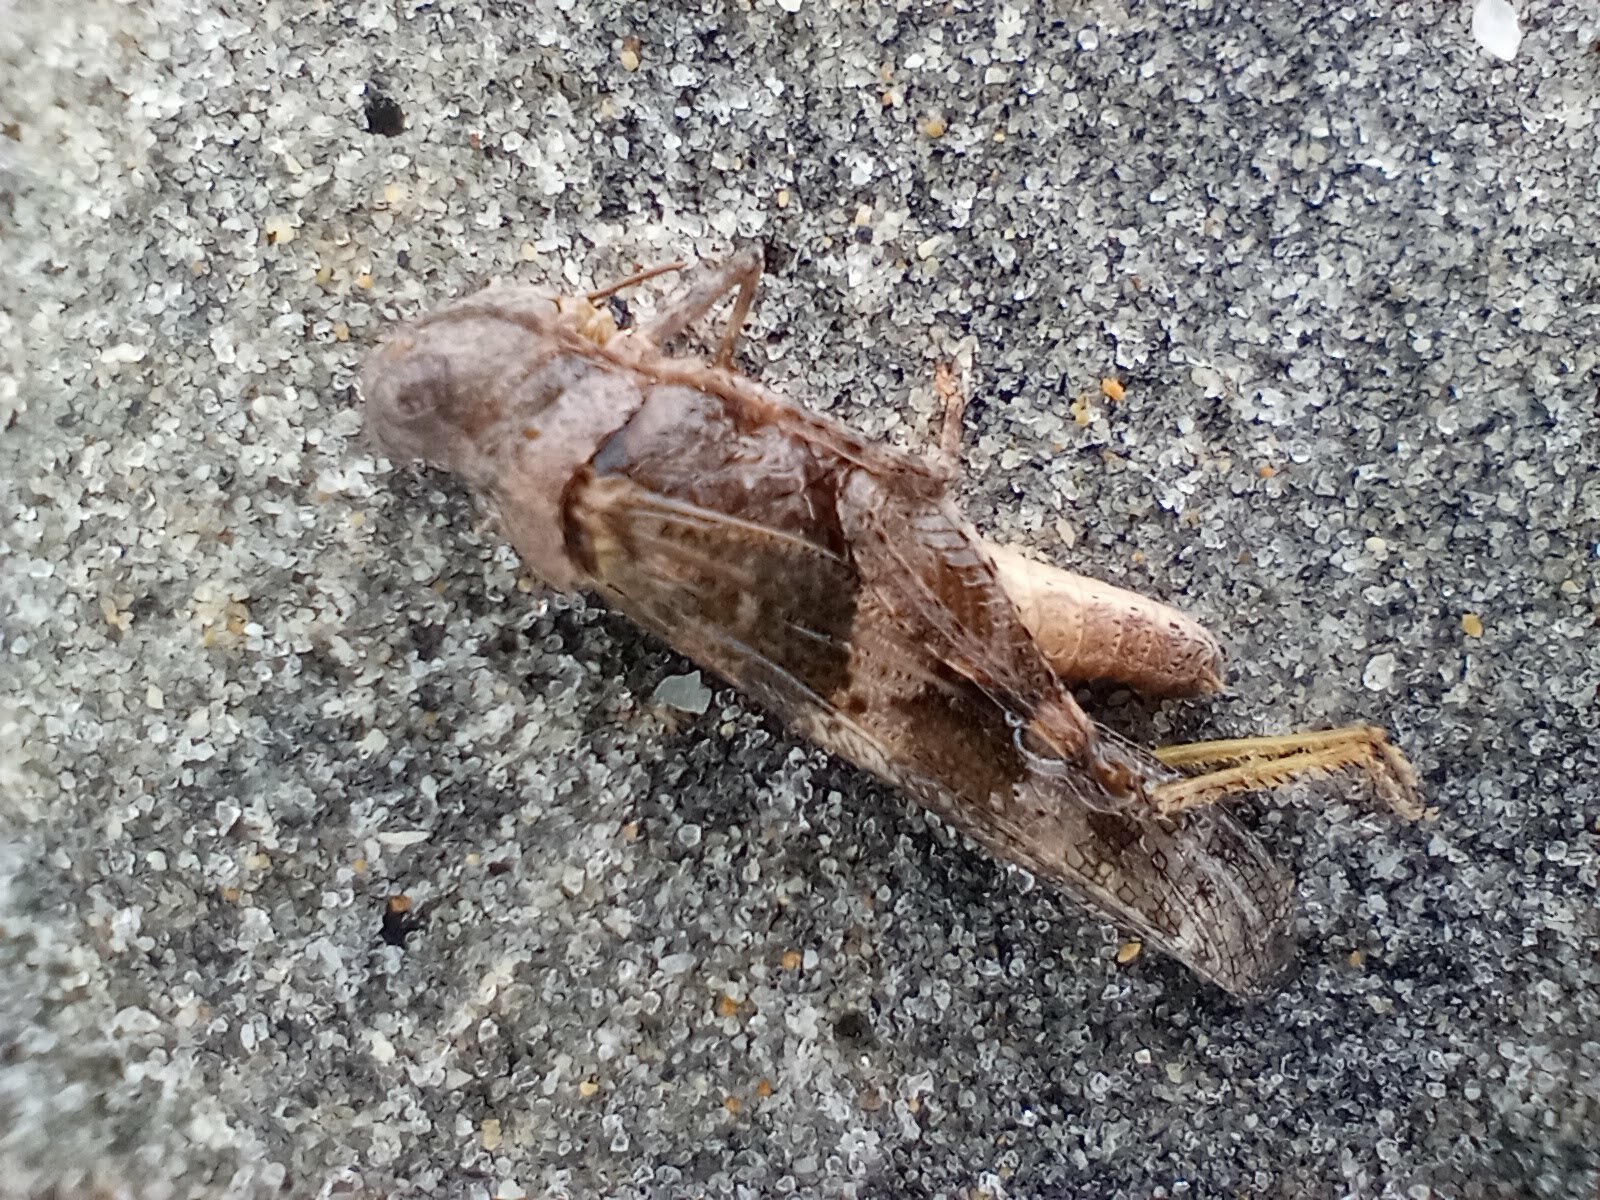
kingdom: Animalia
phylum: Arthropoda
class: Insecta
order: Orthoptera
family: Acrididae
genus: Trimerotropis
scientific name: Trimerotropis pallidipennis
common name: Pallid-winged grasshopper
